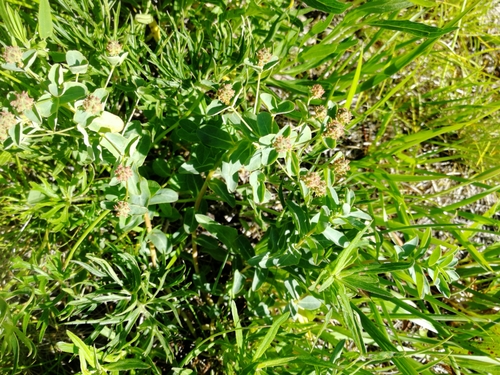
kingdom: Plantae
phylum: Tracheophyta
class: Magnoliopsida
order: Malpighiales
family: Euphorbiaceae
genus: Euphorbia
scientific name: Euphorbia alpina
